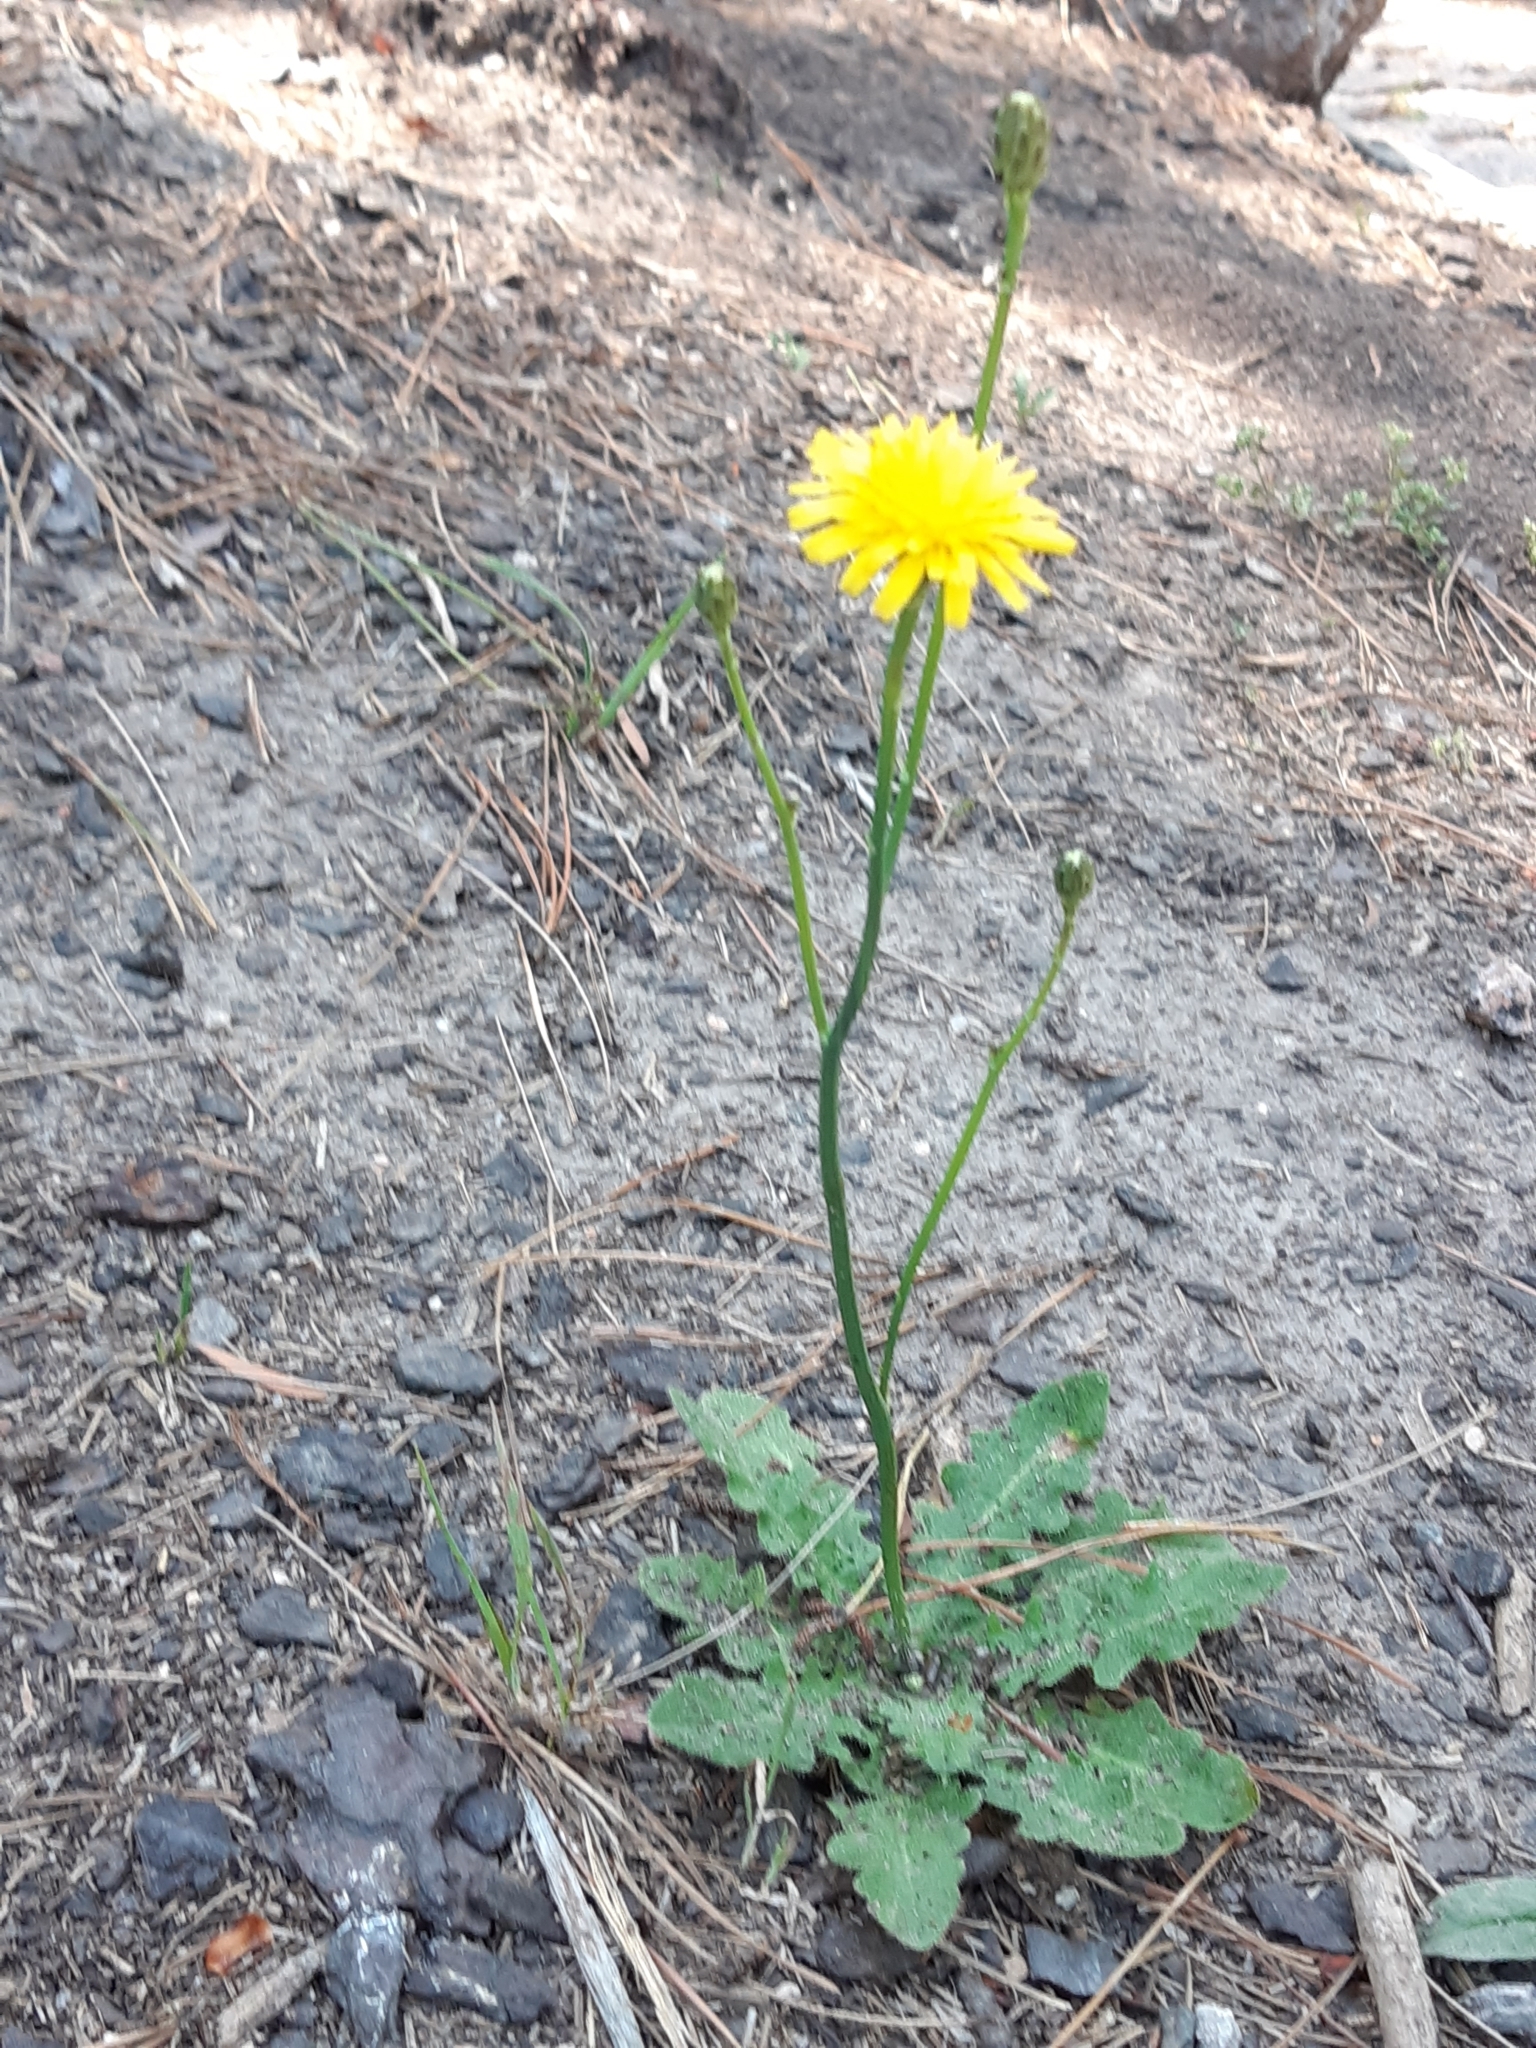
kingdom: Plantae
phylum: Tracheophyta
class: Magnoliopsida
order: Asterales
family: Asteraceae
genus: Hypochaeris
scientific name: Hypochaeris radicata
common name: Flatweed
